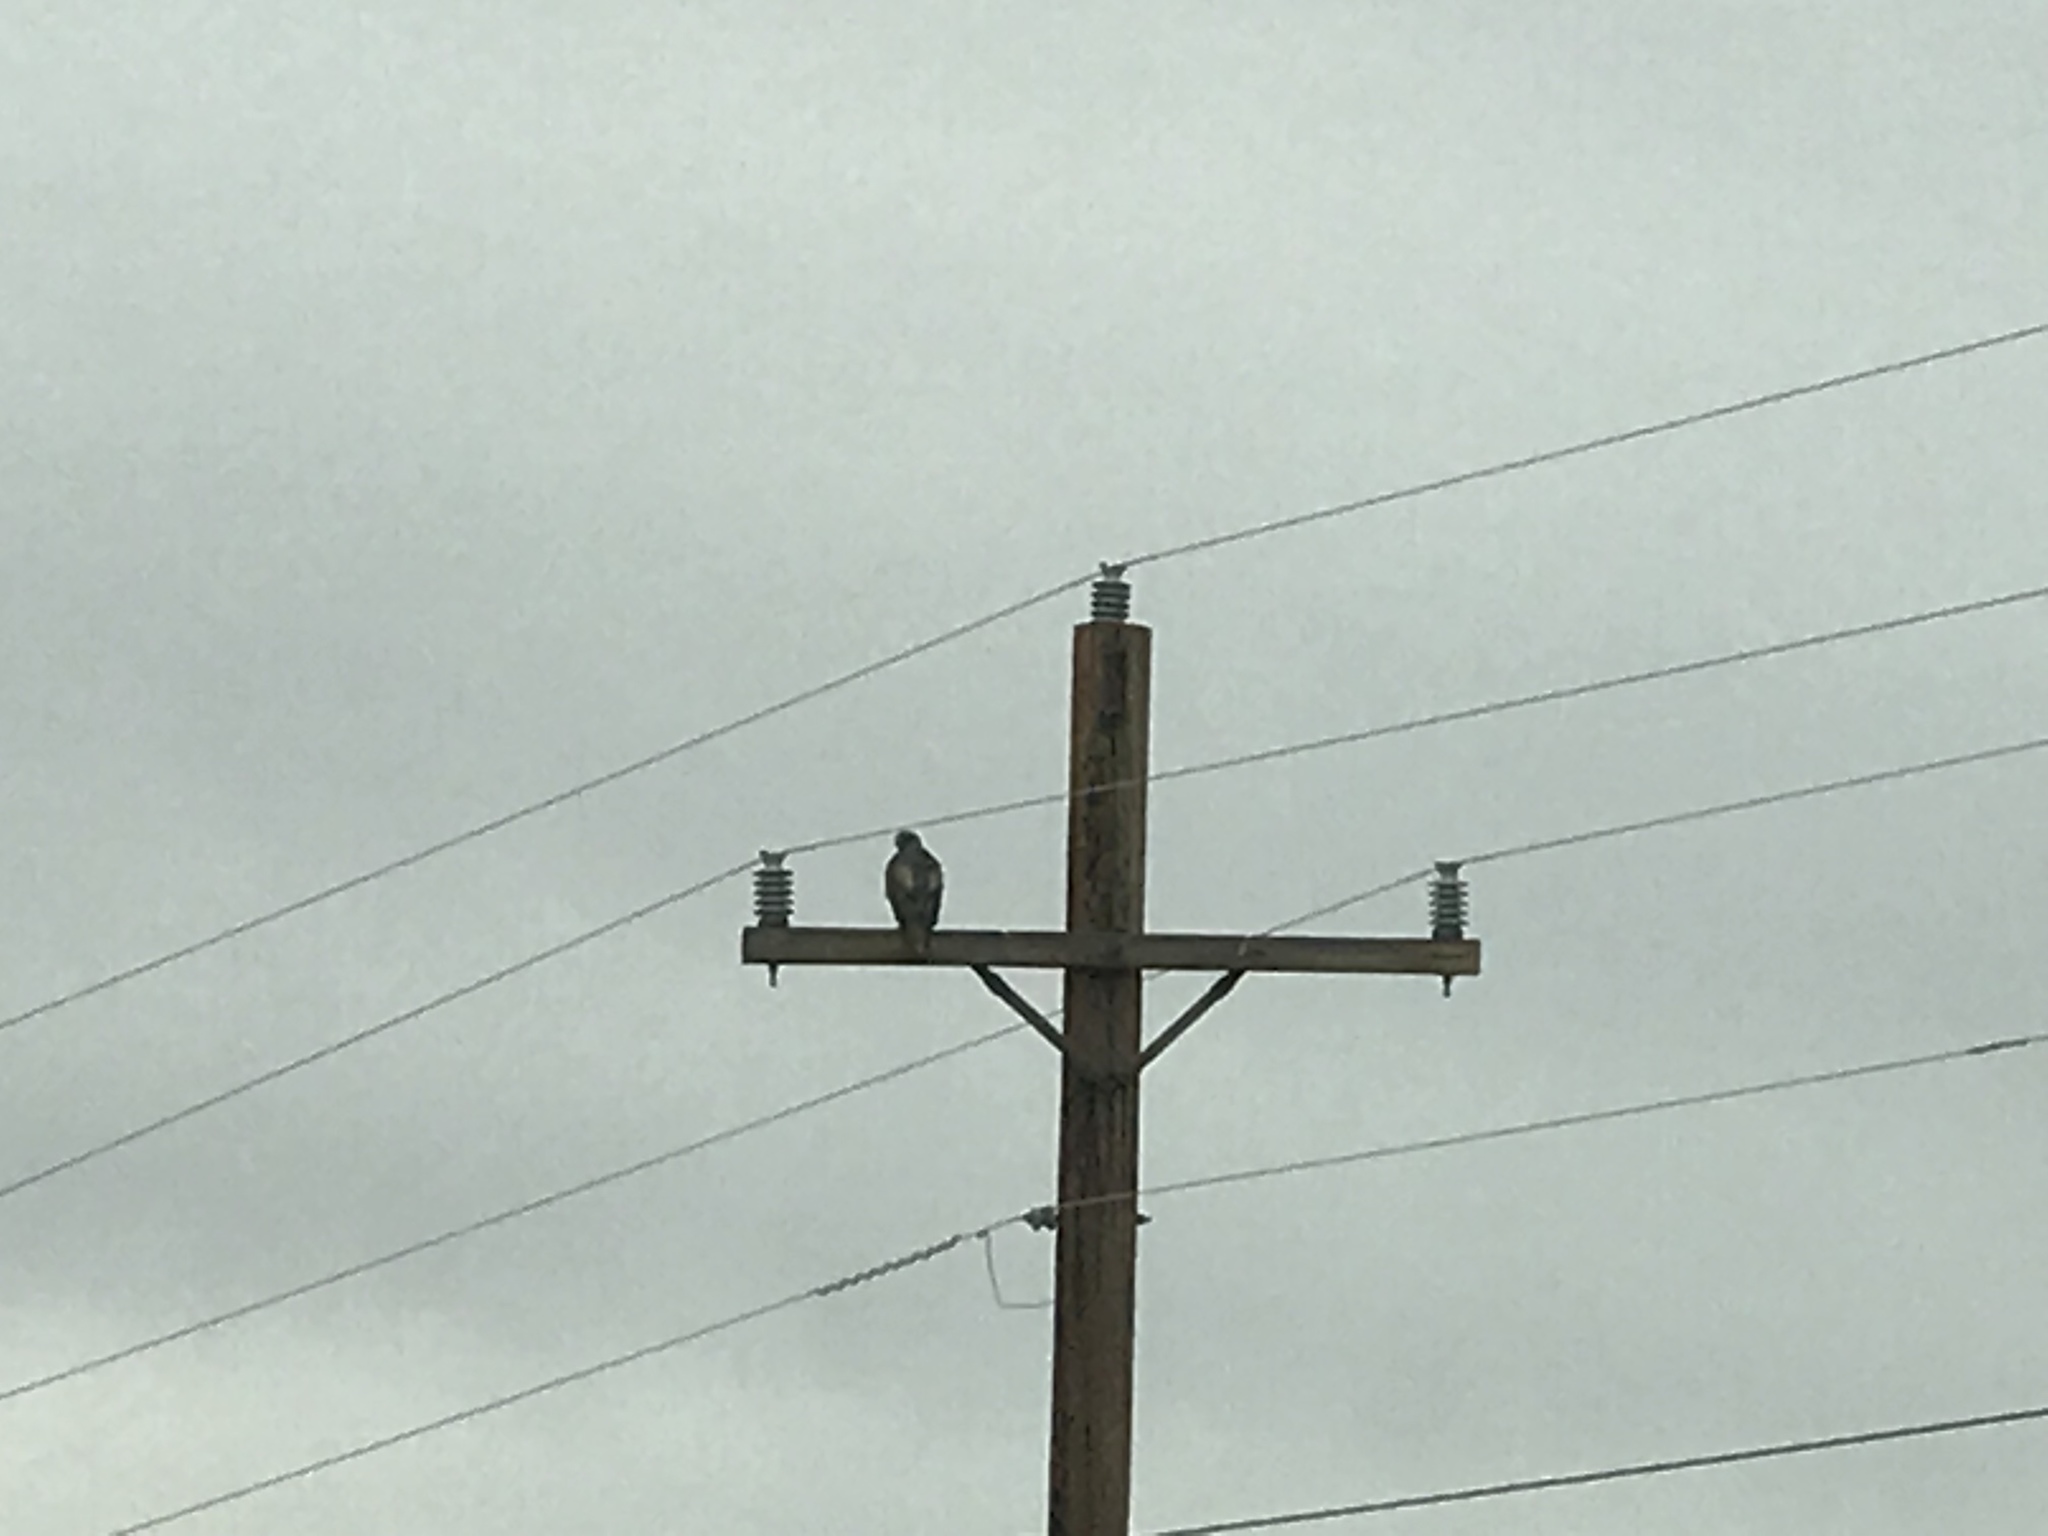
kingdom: Animalia
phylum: Chordata
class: Aves
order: Accipitriformes
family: Accipitridae
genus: Buteo
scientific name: Buteo jamaicensis
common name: Red-tailed hawk
